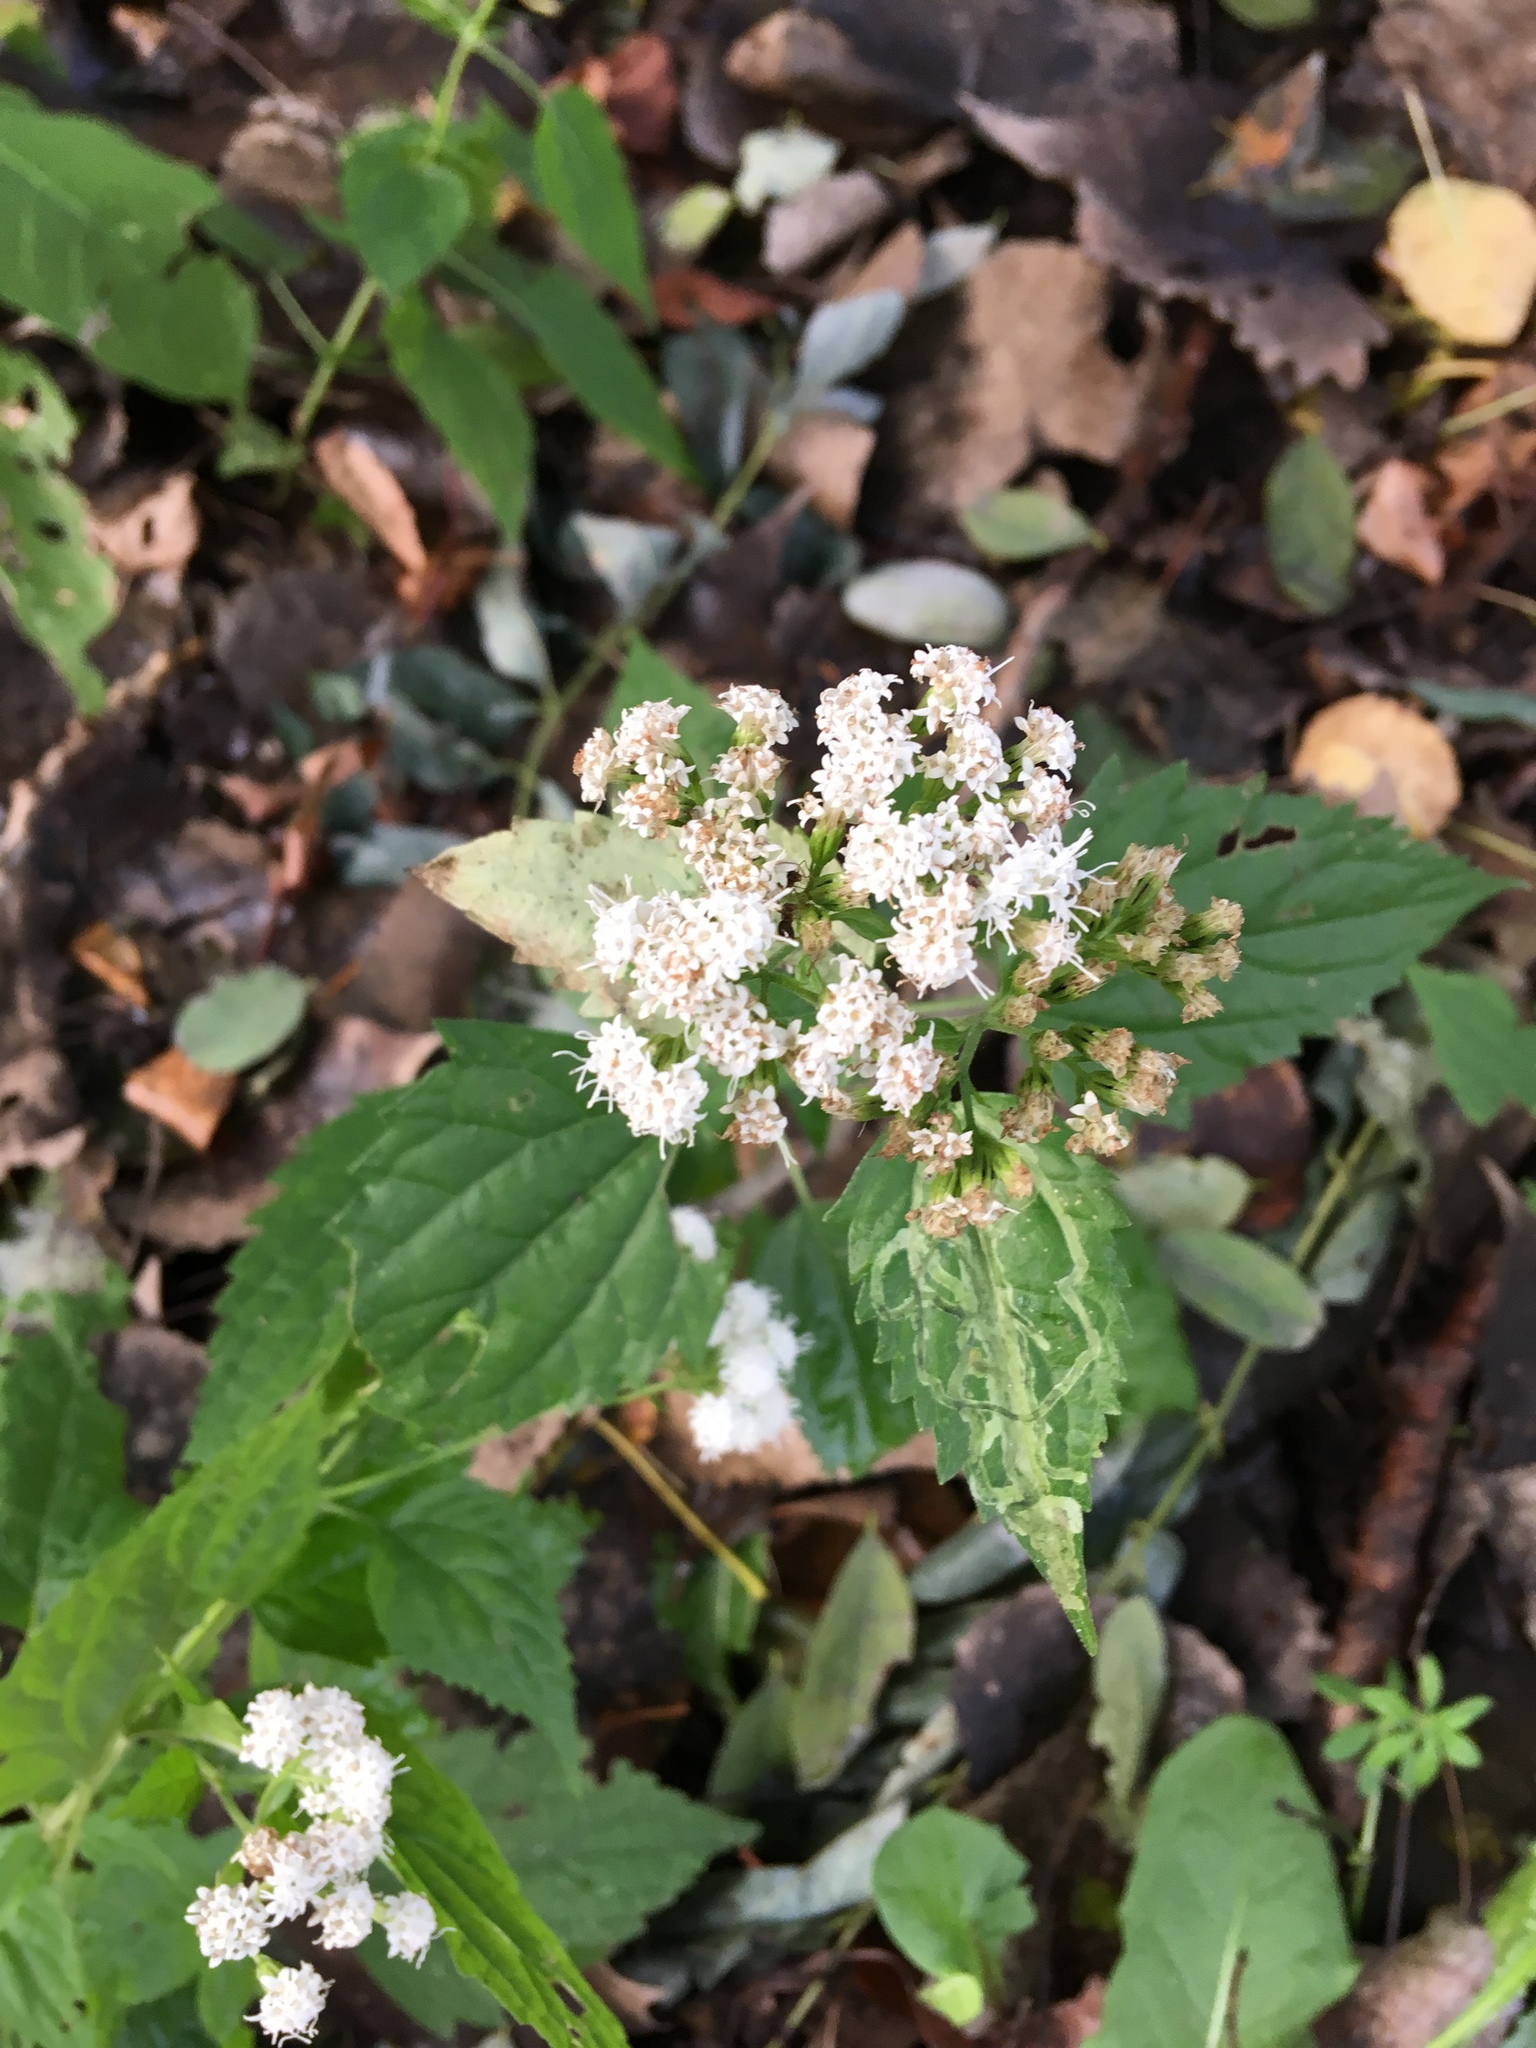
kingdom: Plantae
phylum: Tracheophyta
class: Magnoliopsida
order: Asterales
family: Asteraceae
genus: Ageratina
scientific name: Ageratina altissima
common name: White snakeroot
